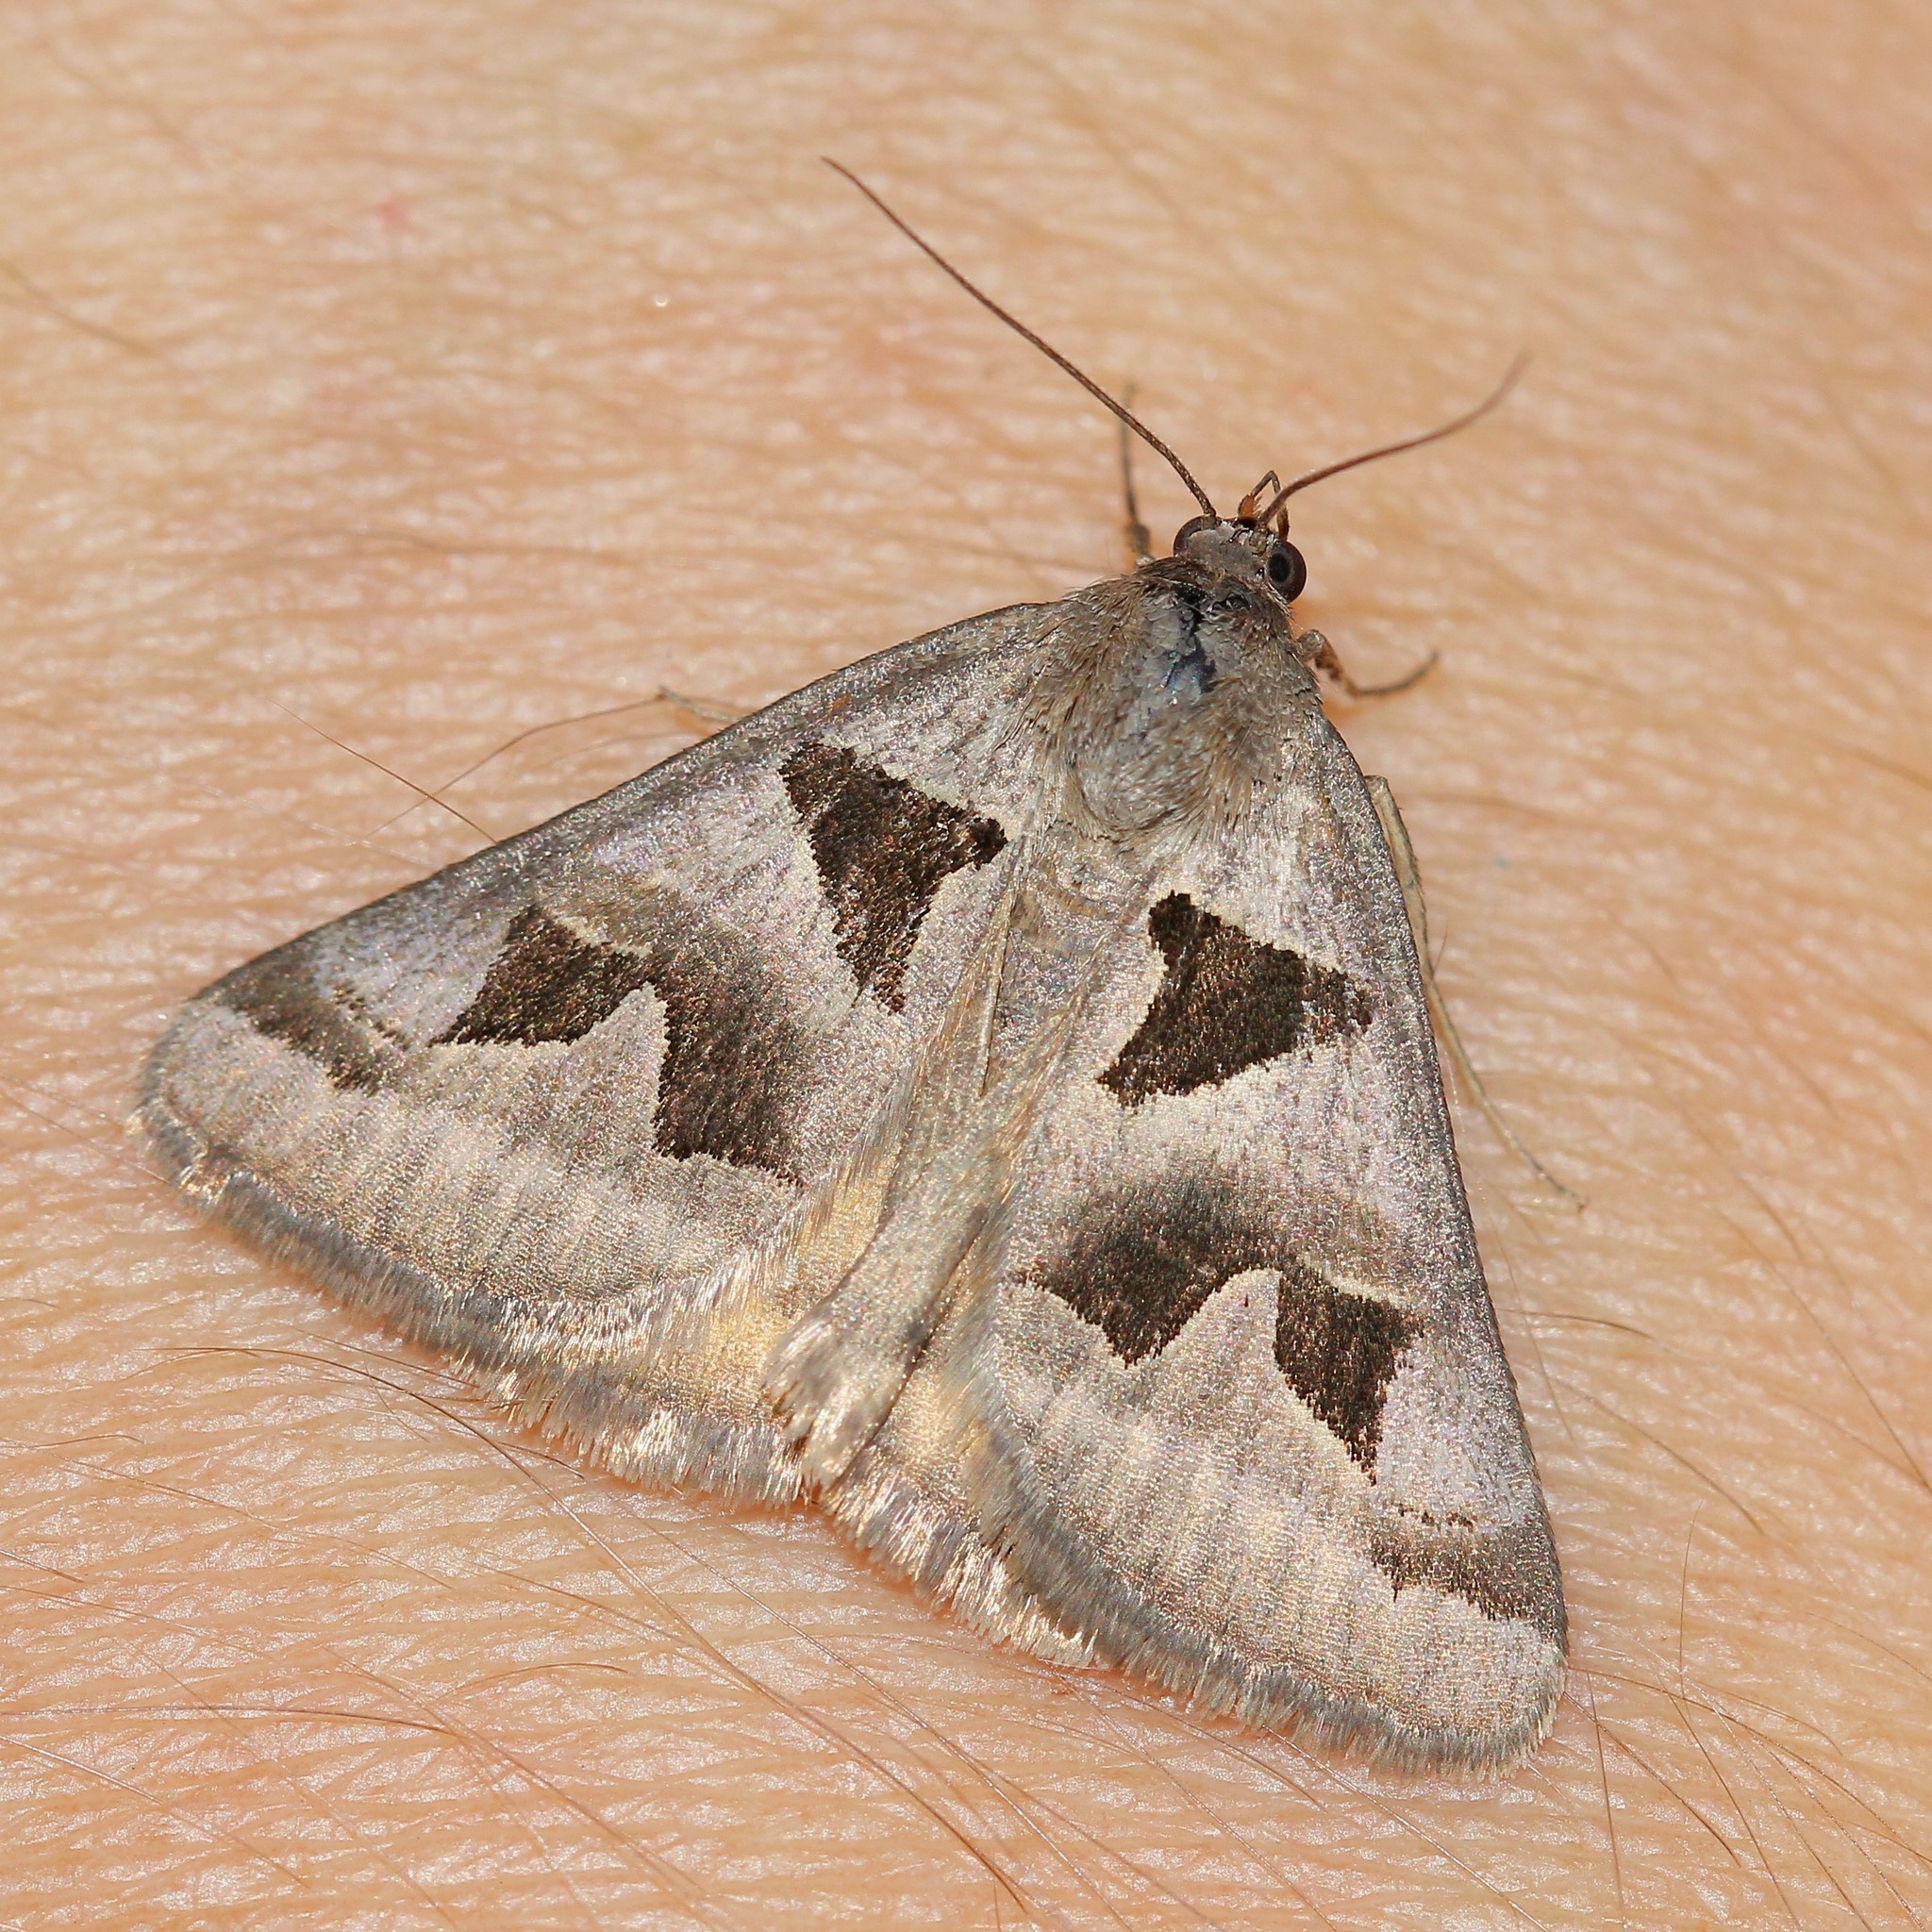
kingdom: Animalia
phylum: Arthropoda
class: Insecta
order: Lepidoptera
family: Erebidae
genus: Euclidia
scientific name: Euclidia triquetra
